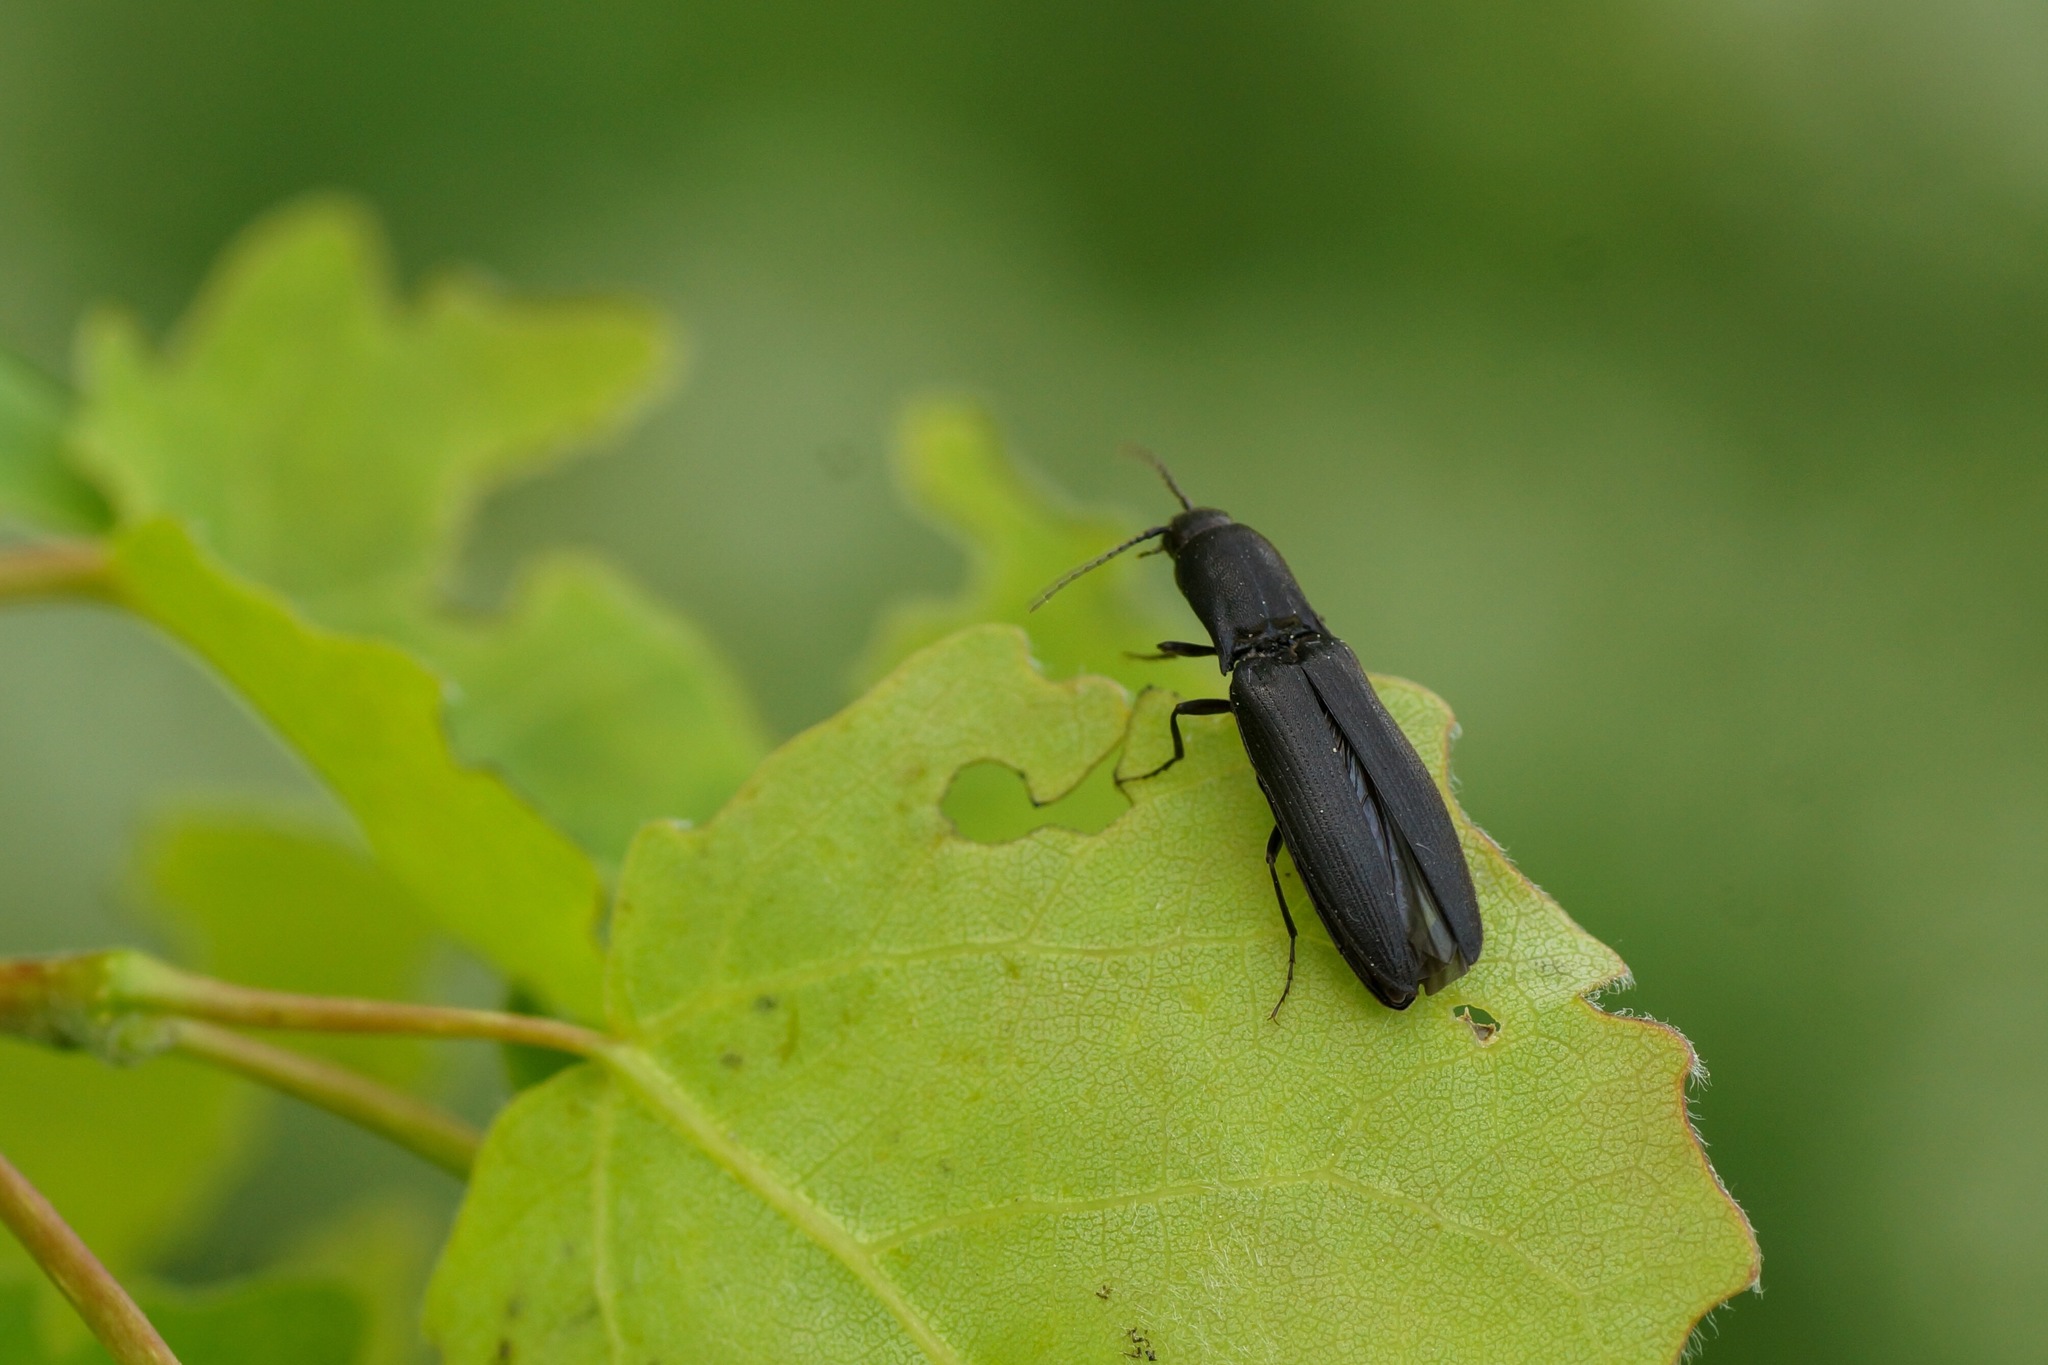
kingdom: Animalia
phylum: Arthropoda
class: Insecta
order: Coleoptera
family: Elateridae
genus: Ectinus
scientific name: Ectinus aterrimus
